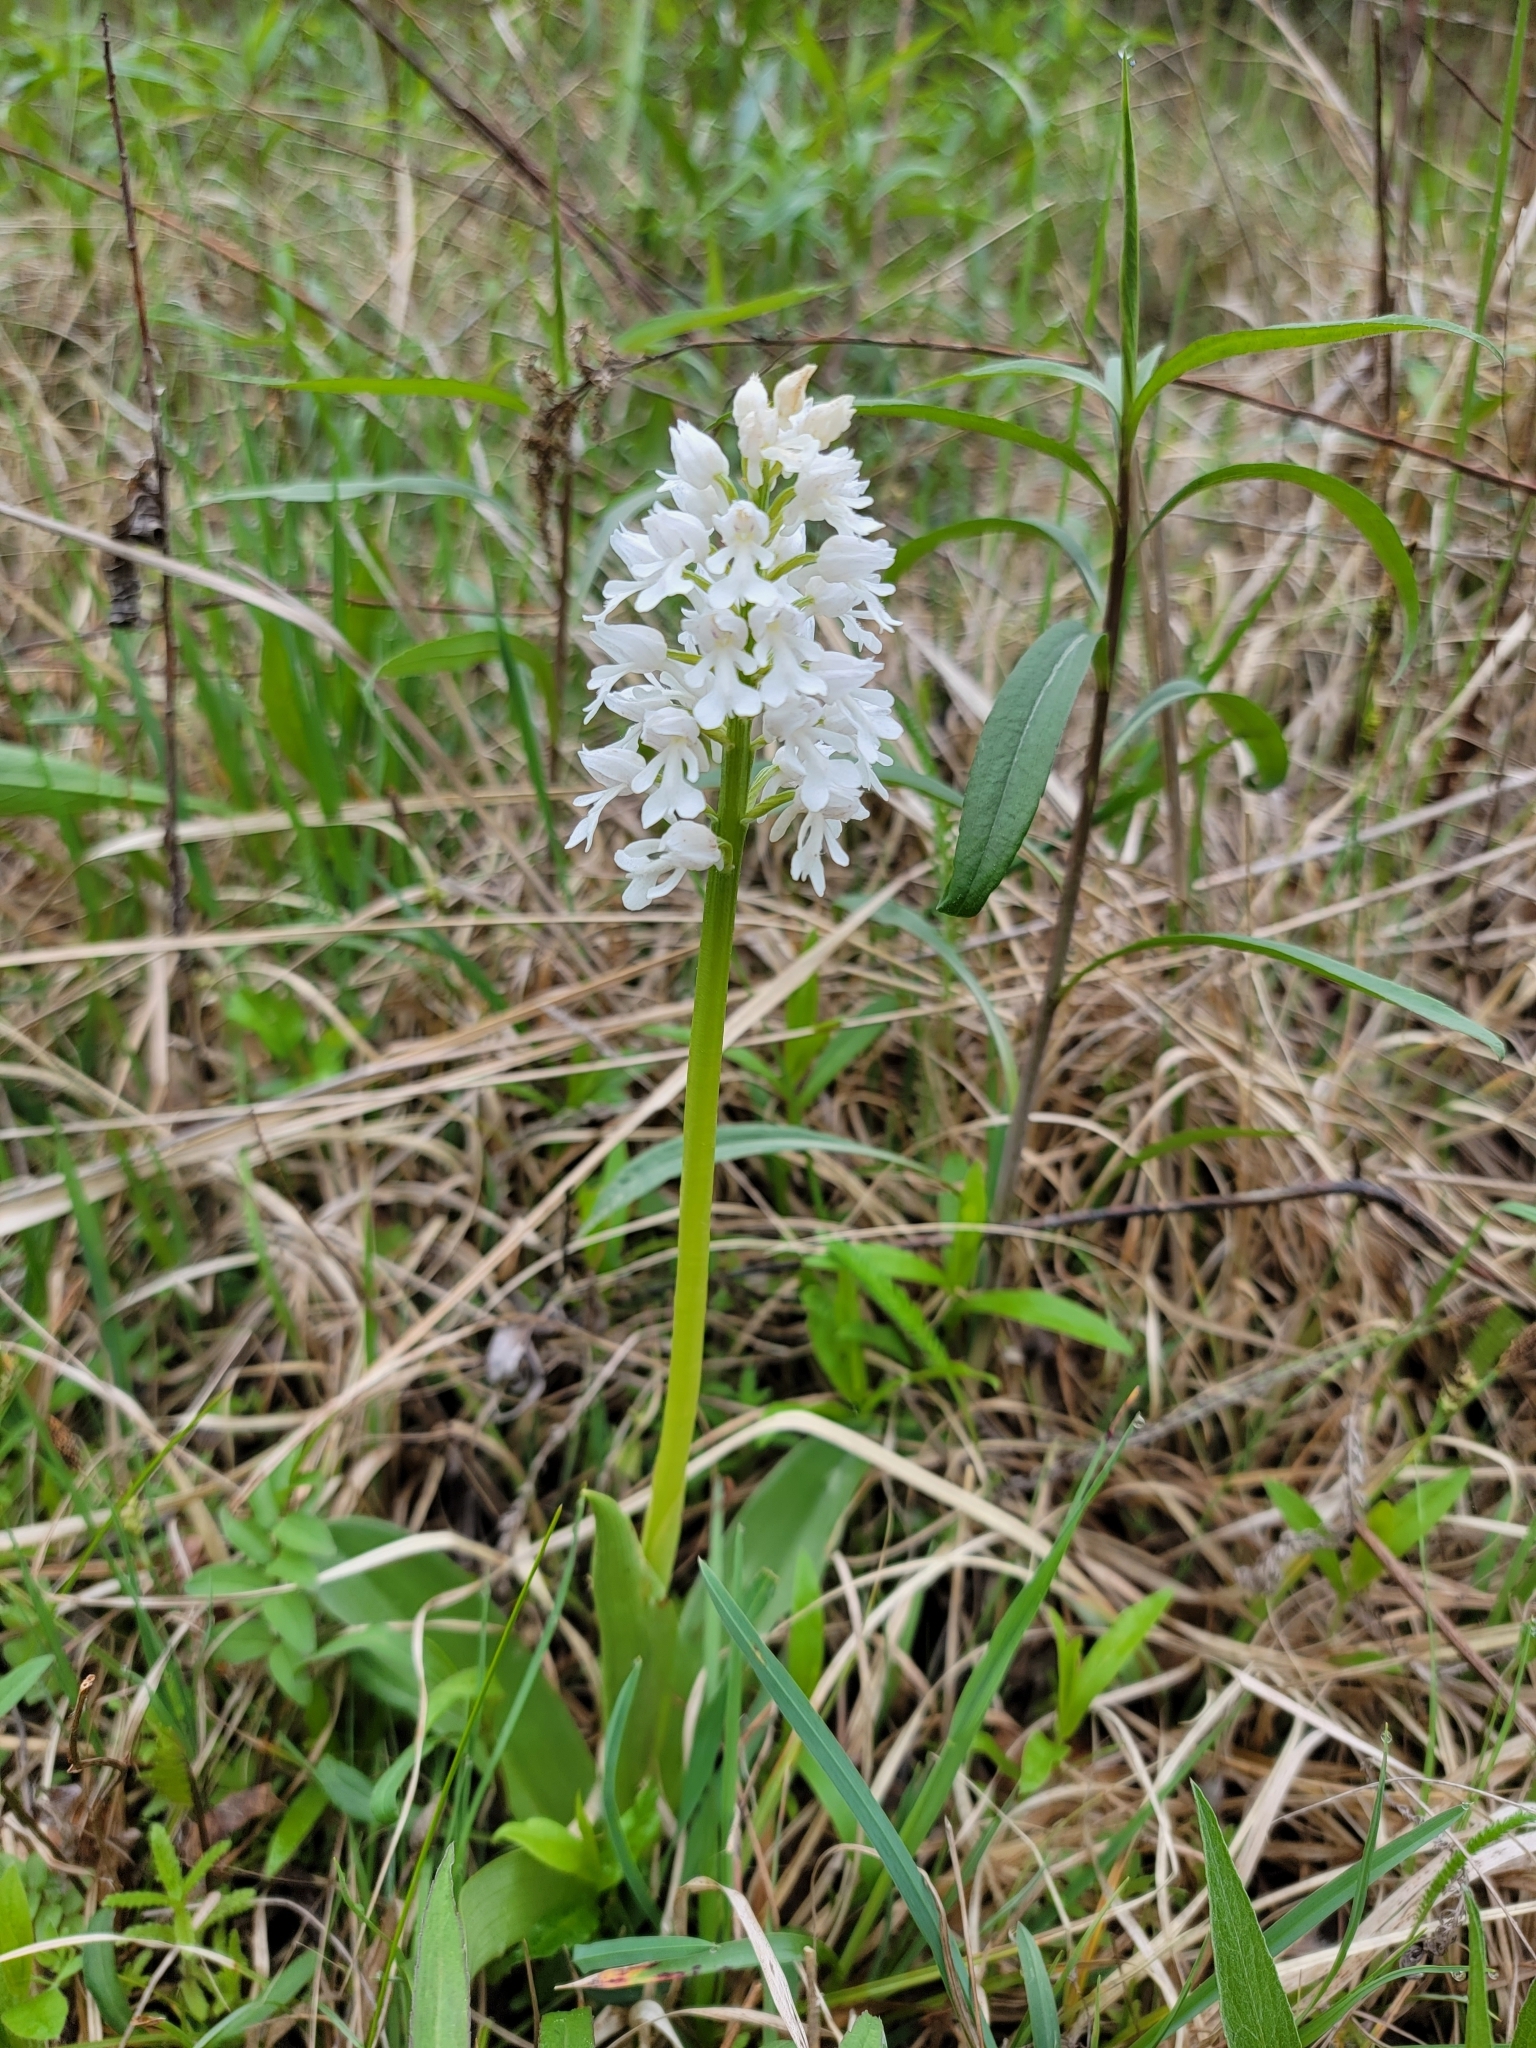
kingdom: Plantae
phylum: Tracheophyta
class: Liliopsida
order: Asparagales
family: Orchidaceae
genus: Orchis
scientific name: Orchis militaris
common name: Military orchid
